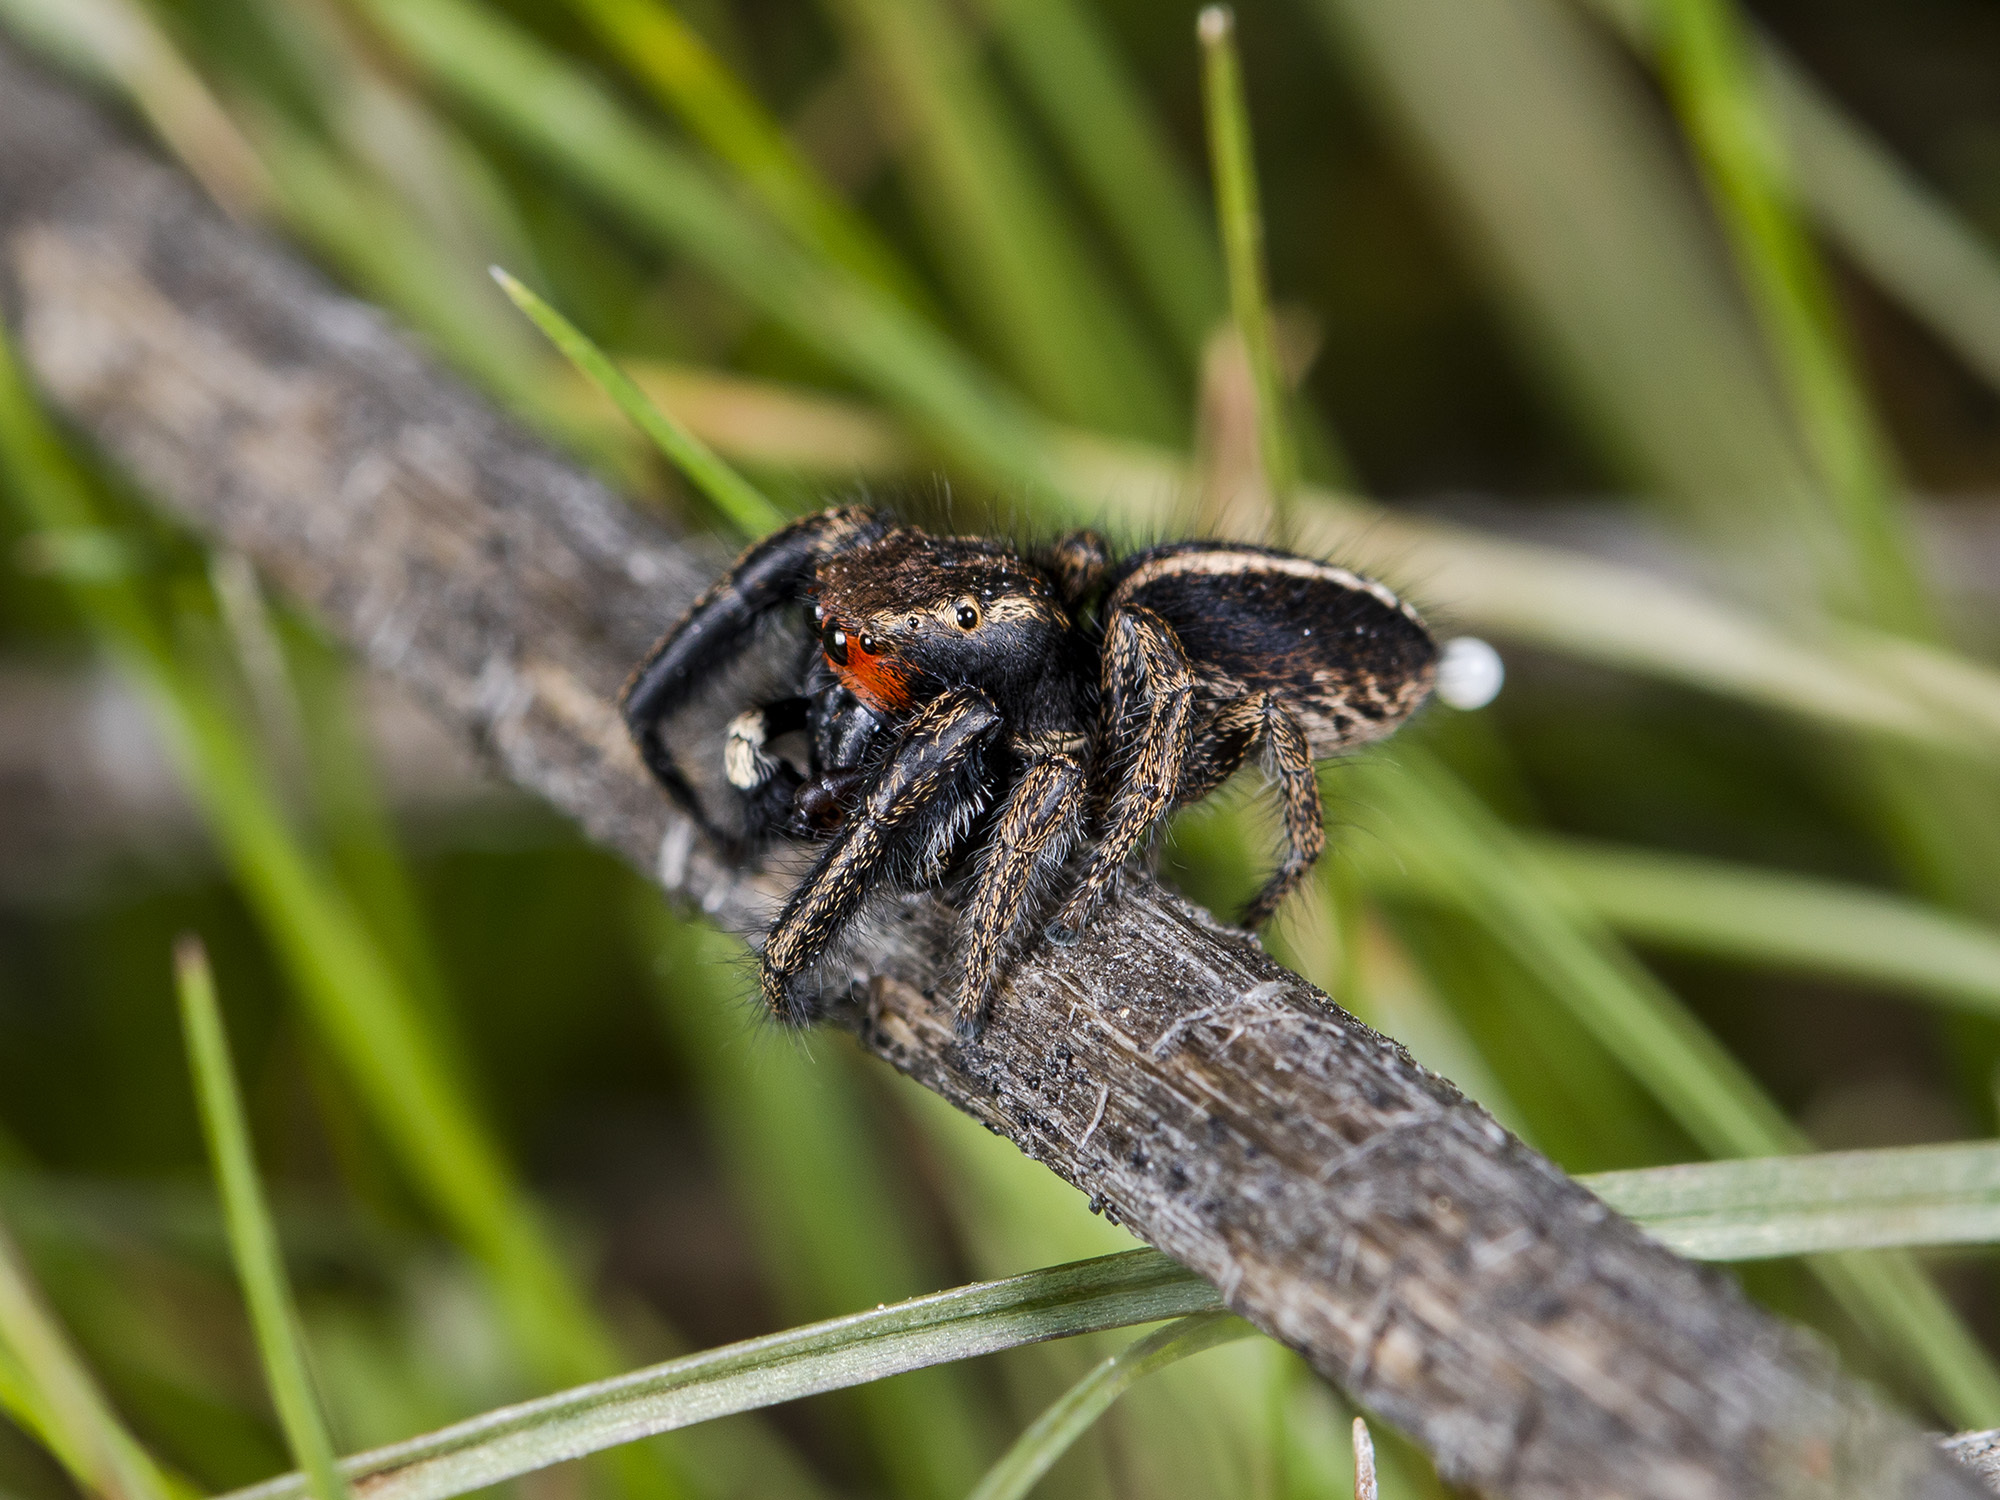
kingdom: Animalia
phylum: Arthropoda
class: Arachnida
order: Araneae
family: Salticidae
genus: Pellenes
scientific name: Pellenes seriatus
